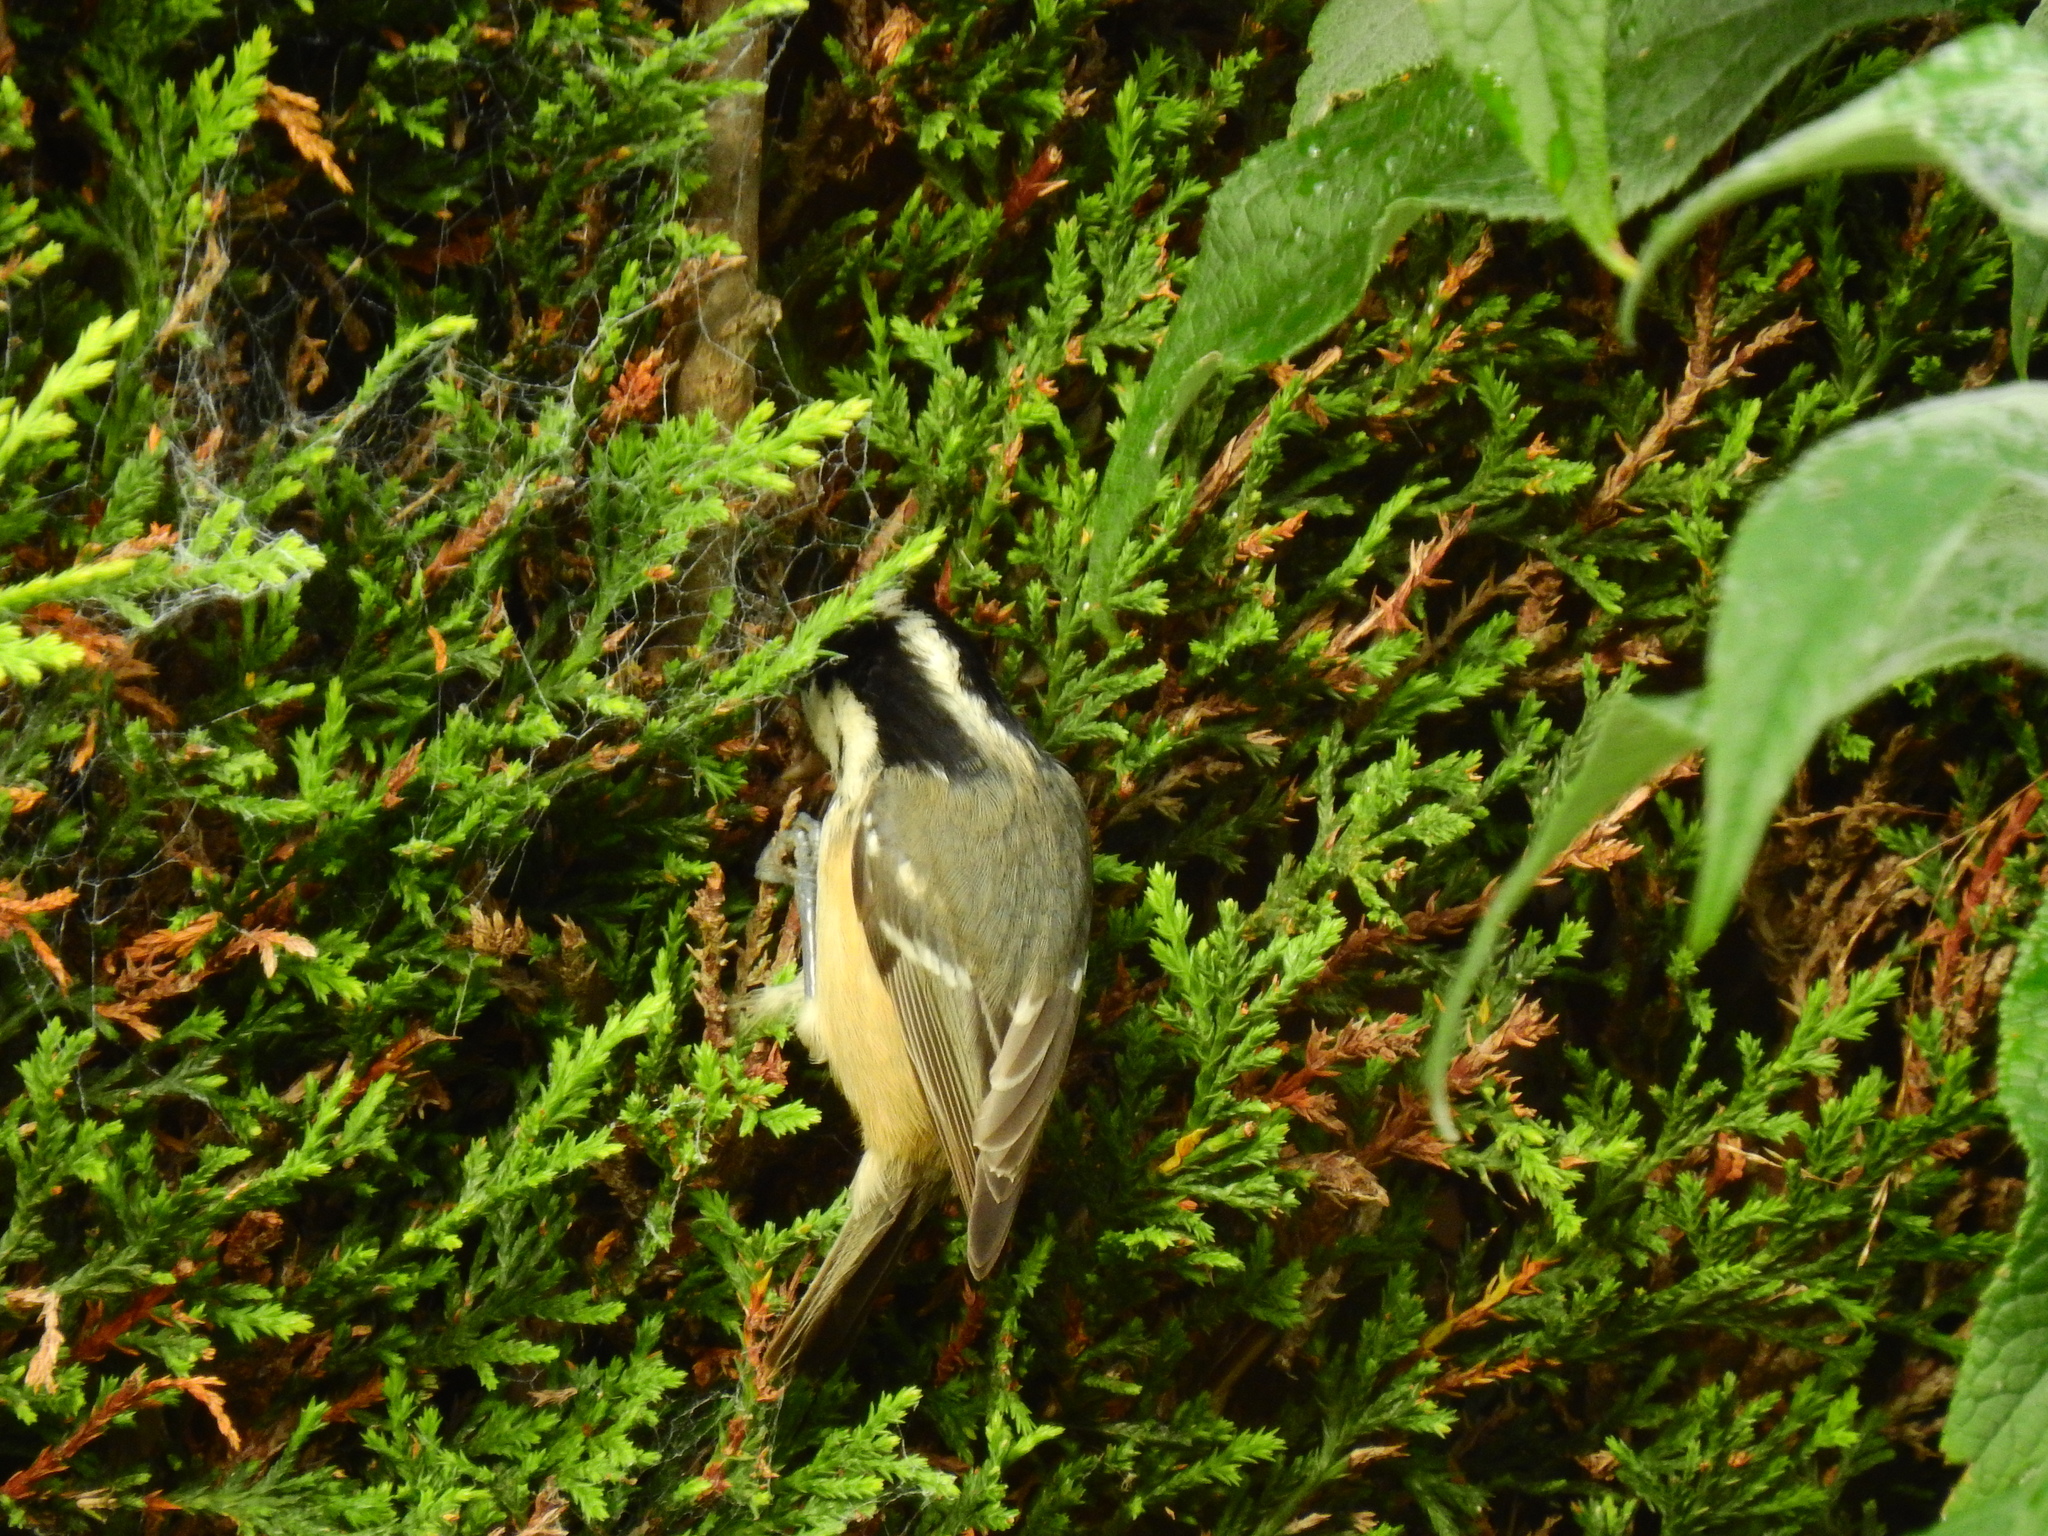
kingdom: Animalia
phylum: Chordata
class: Aves
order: Passeriformes
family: Paridae
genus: Periparus
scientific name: Periparus ater
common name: Coal tit
